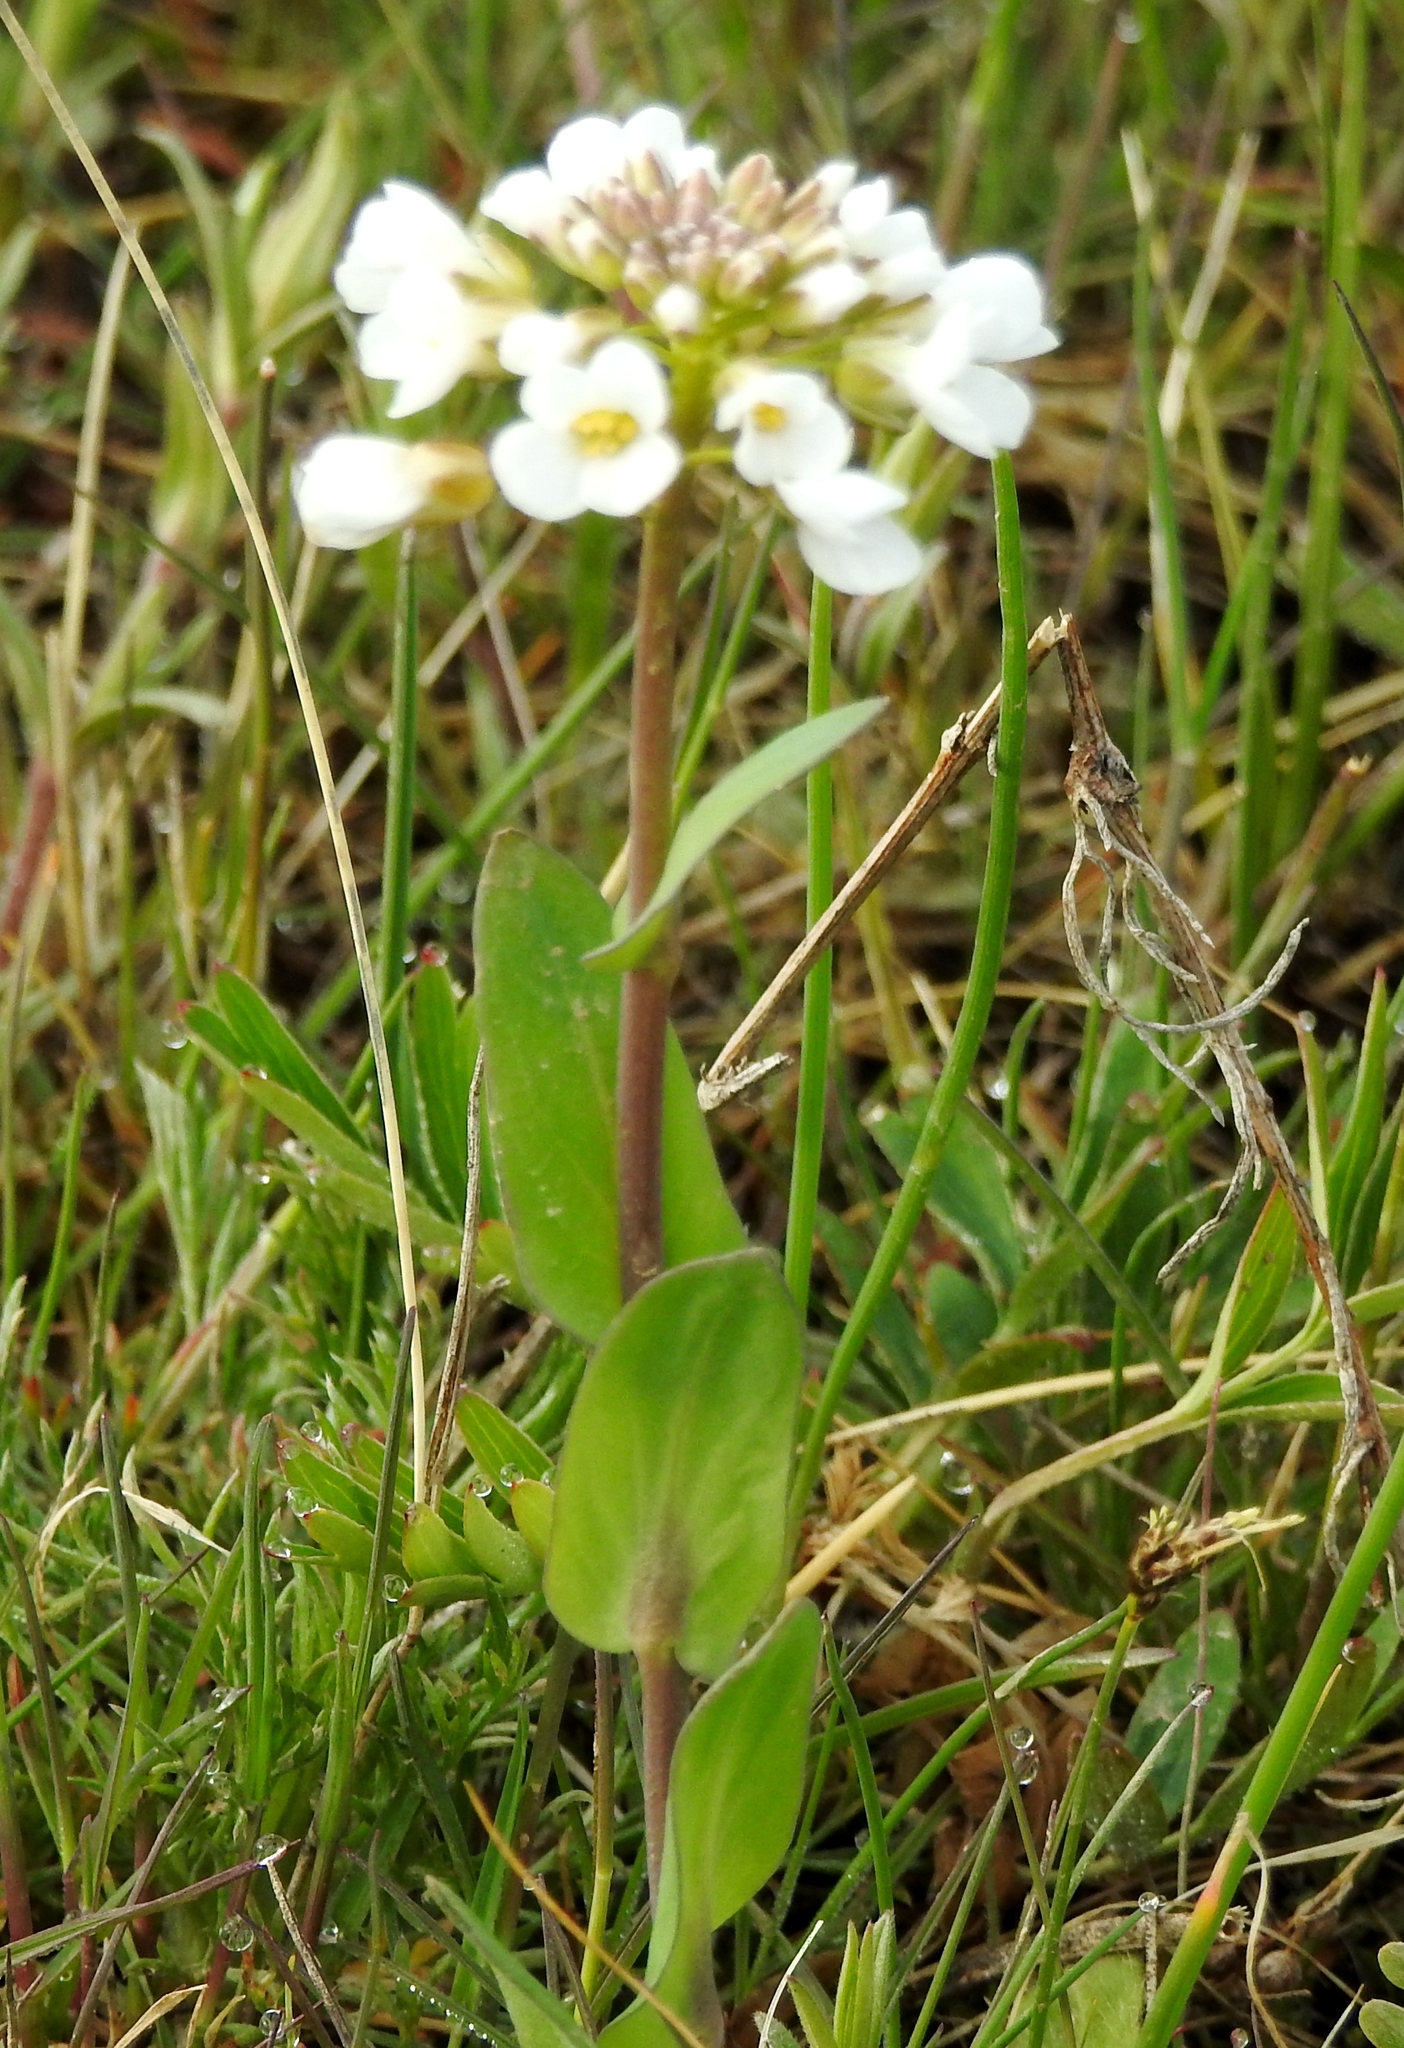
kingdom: Plantae
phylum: Tracheophyta
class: Magnoliopsida
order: Brassicales
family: Brassicaceae
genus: Noccaea
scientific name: Noccaea thlaspidioides
